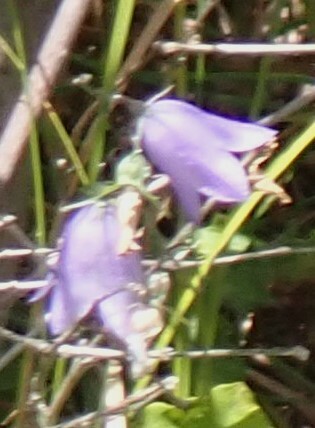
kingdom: Plantae
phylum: Tracheophyta
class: Magnoliopsida
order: Asterales
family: Campanulaceae
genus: Campanula
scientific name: Campanula alaskana
